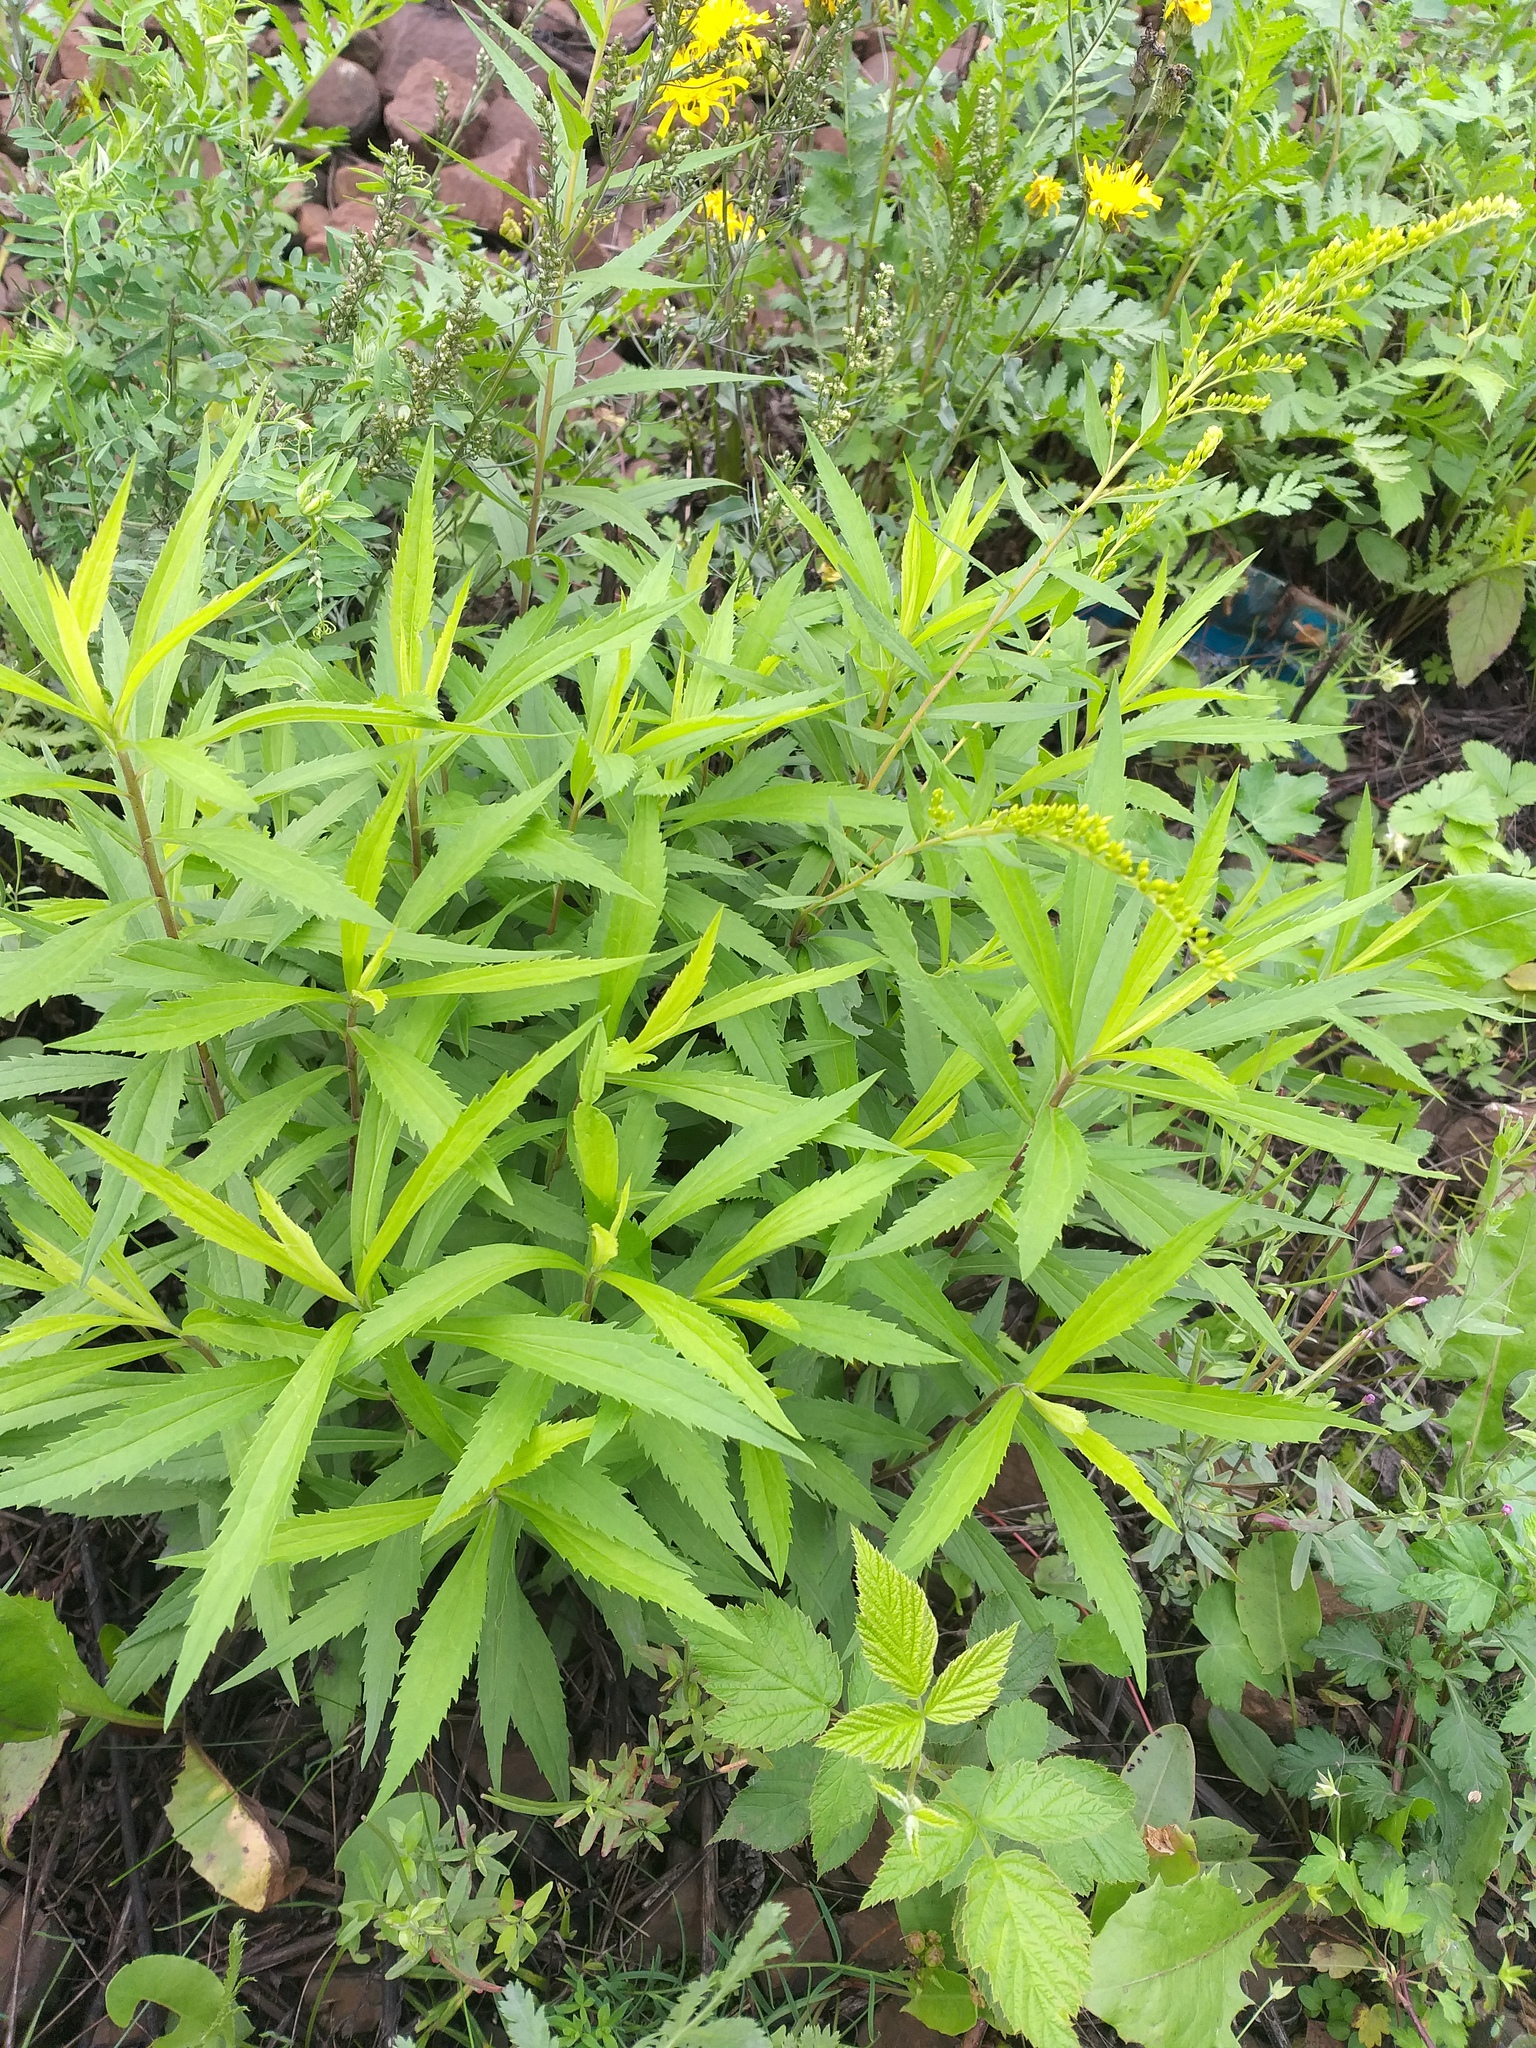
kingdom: Plantae
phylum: Tracheophyta
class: Magnoliopsida
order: Asterales
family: Asteraceae
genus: Solidago
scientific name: Solidago canadensis
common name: Canada goldenrod
